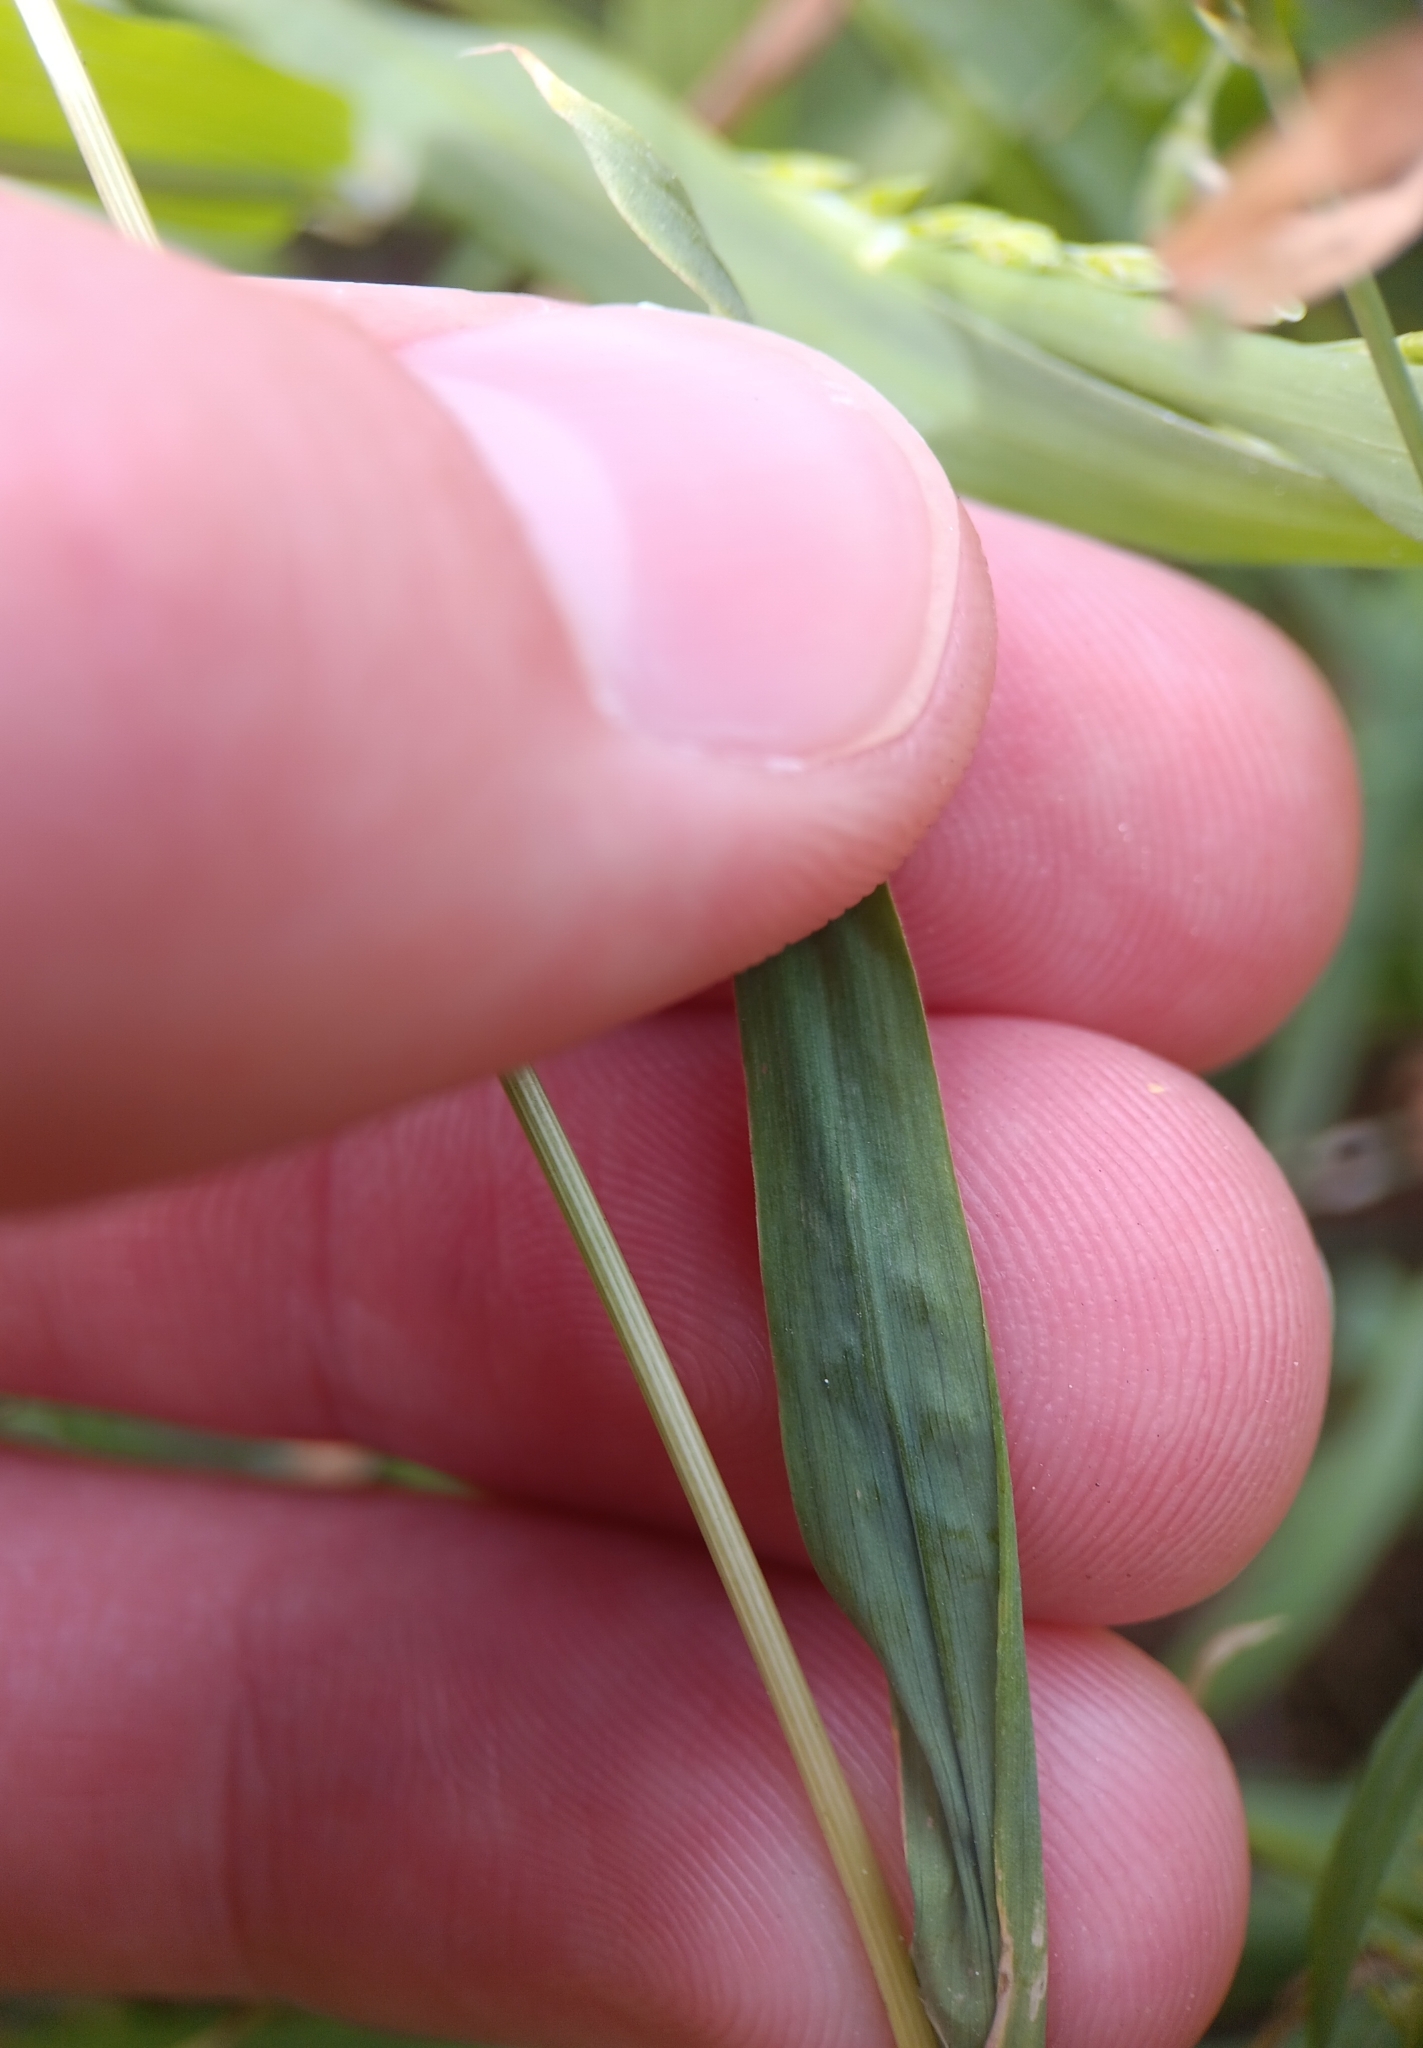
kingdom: Plantae
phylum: Tracheophyta
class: Liliopsida
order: Poales
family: Poaceae
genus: Lamarckia
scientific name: Lamarckia aurea
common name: Golden dog's-tail
